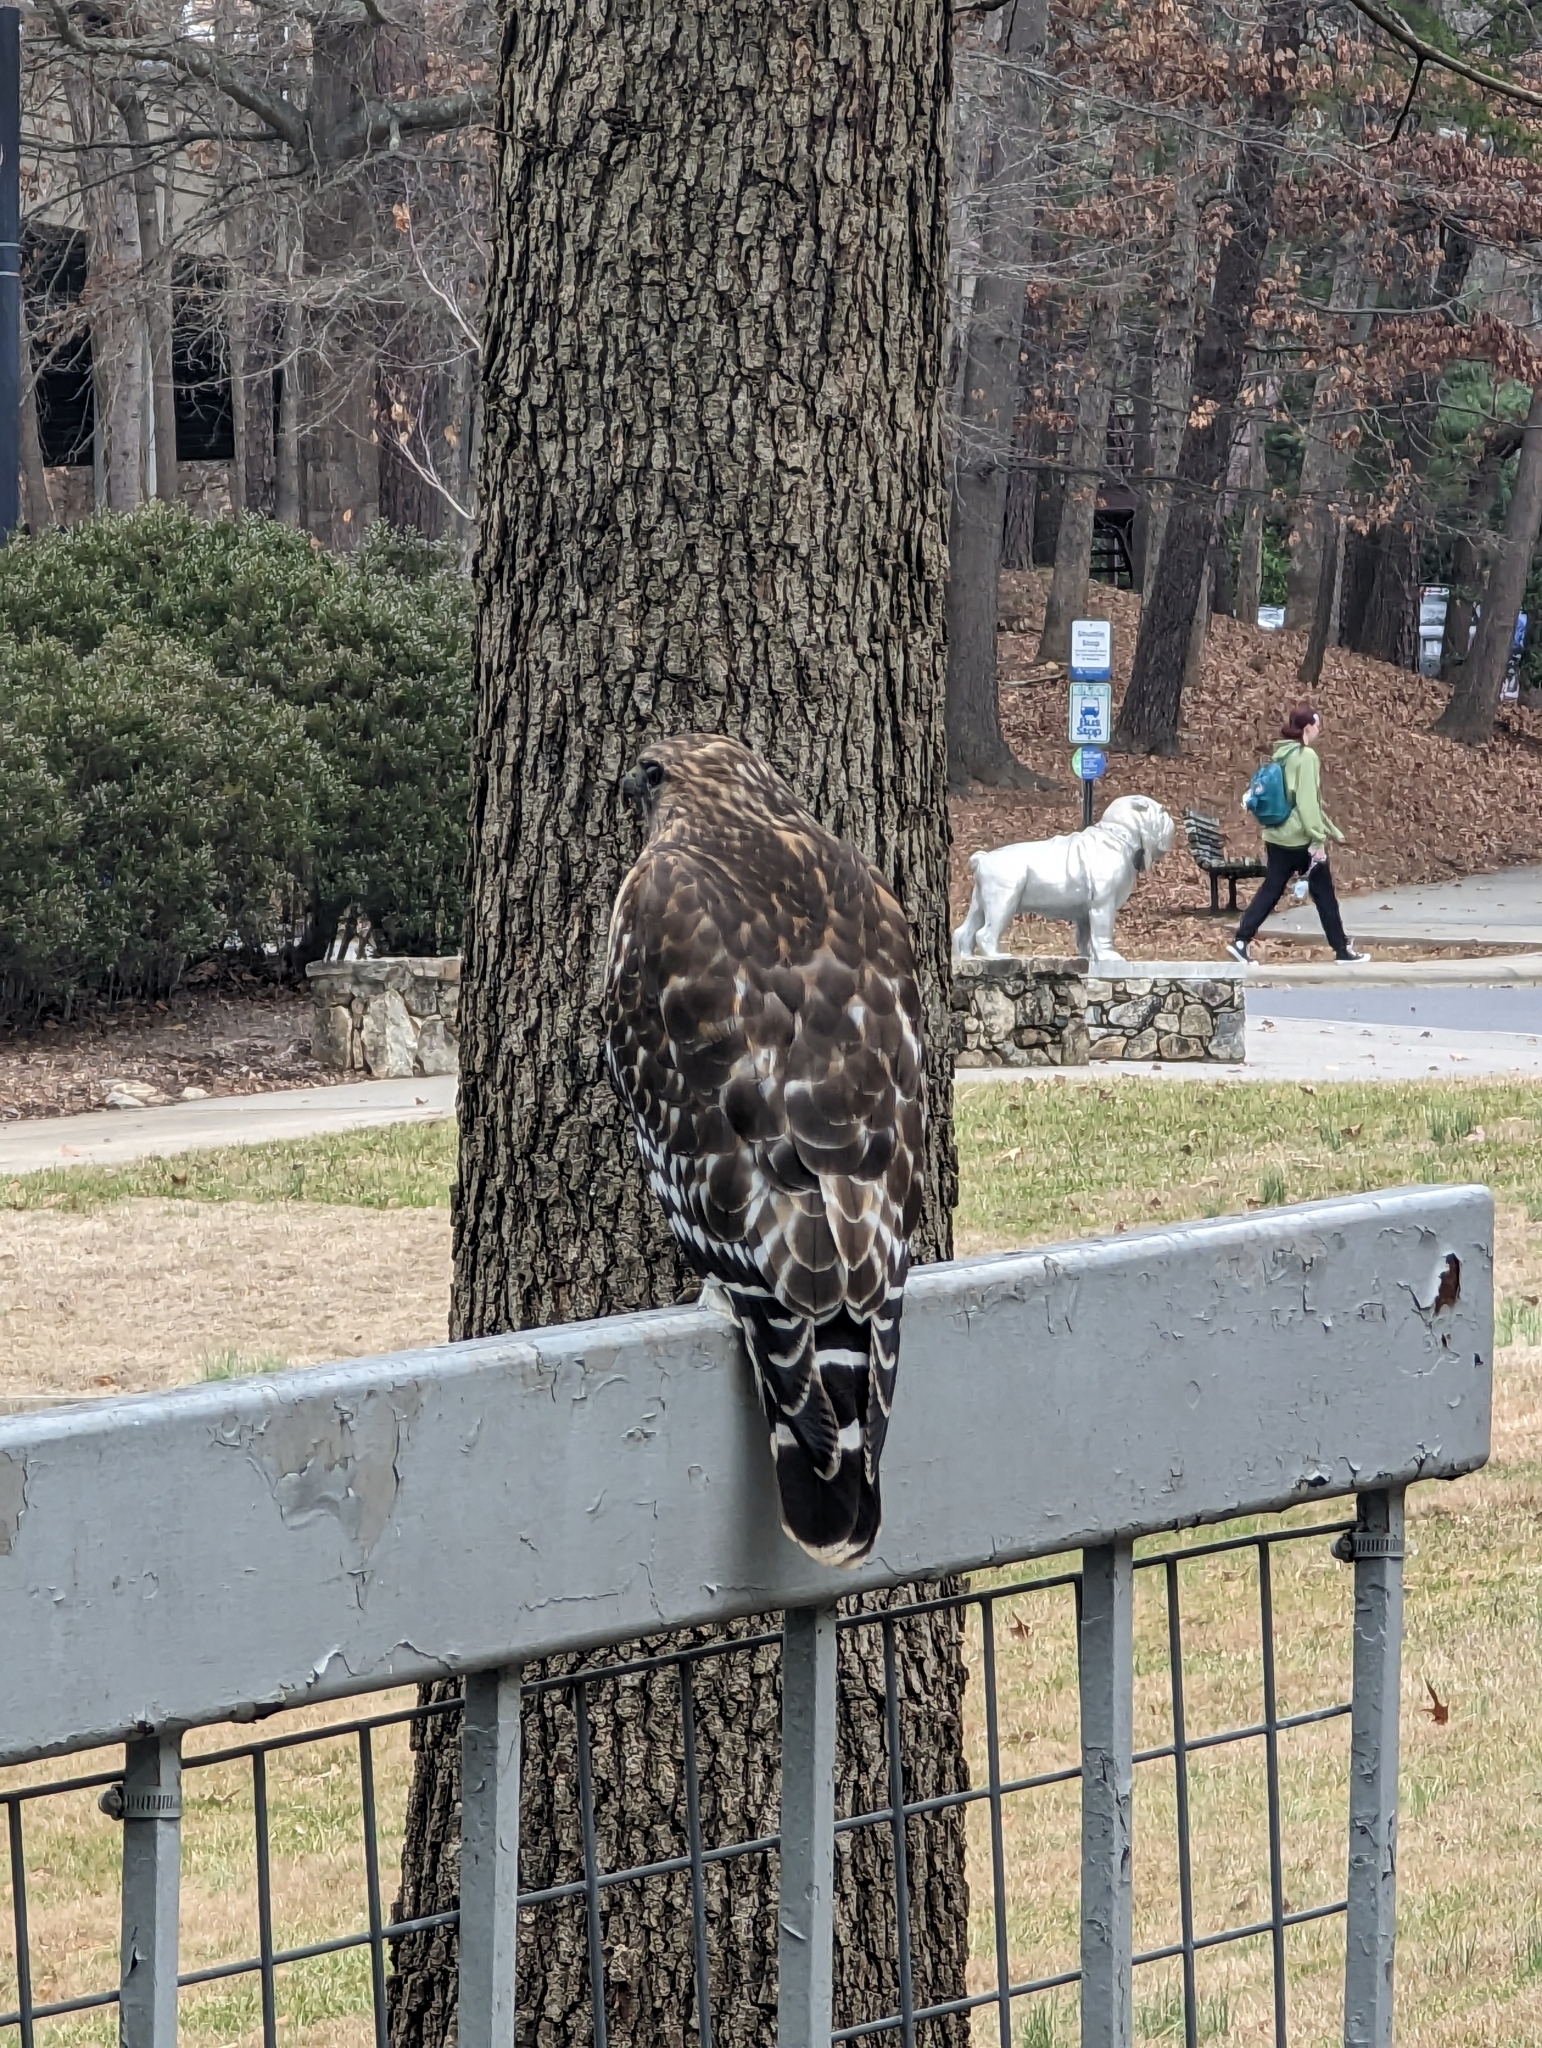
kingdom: Animalia
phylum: Chordata
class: Aves
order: Accipitriformes
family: Accipitridae
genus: Buteo
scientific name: Buteo lineatus
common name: Red-shouldered hawk
